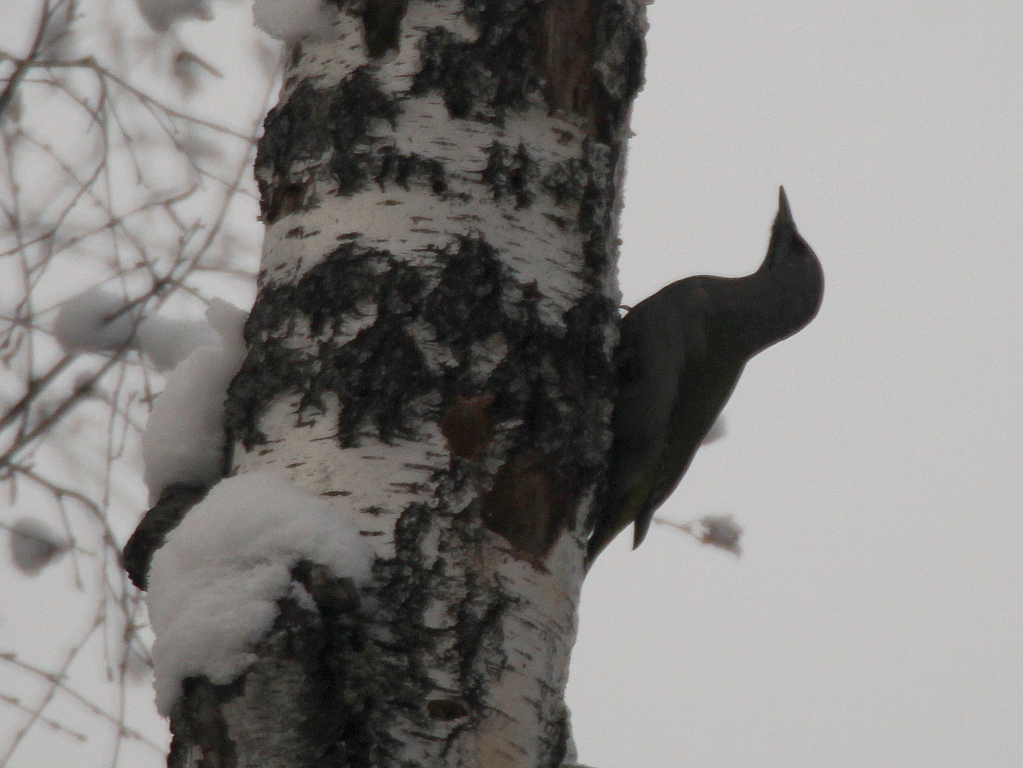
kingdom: Animalia
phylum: Chordata
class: Aves
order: Piciformes
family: Picidae
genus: Picus
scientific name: Picus canus
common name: Grey-headed woodpecker
